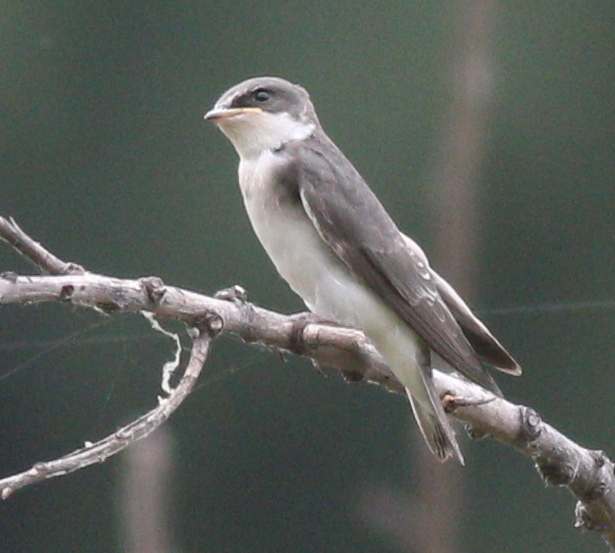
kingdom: Animalia
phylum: Chordata
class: Aves
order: Passeriformes
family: Hirundinidae
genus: Tachycineta
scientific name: Tachycineta leucorrhoa
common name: White-rumped swallow
